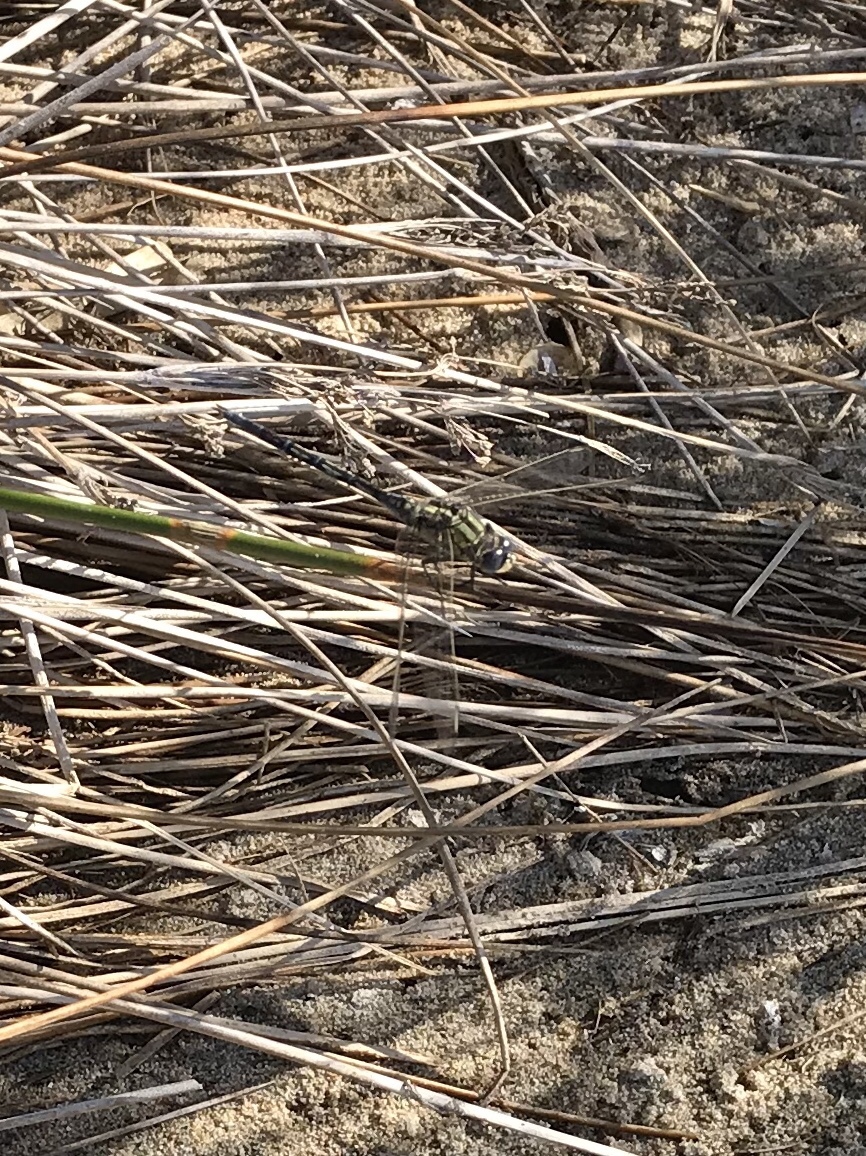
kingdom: Animalia
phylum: Arthropoda
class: Insecta
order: Odonata
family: Libellulidae
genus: Orthetrum
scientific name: Orthetrum trinacria
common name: Long skimmer
